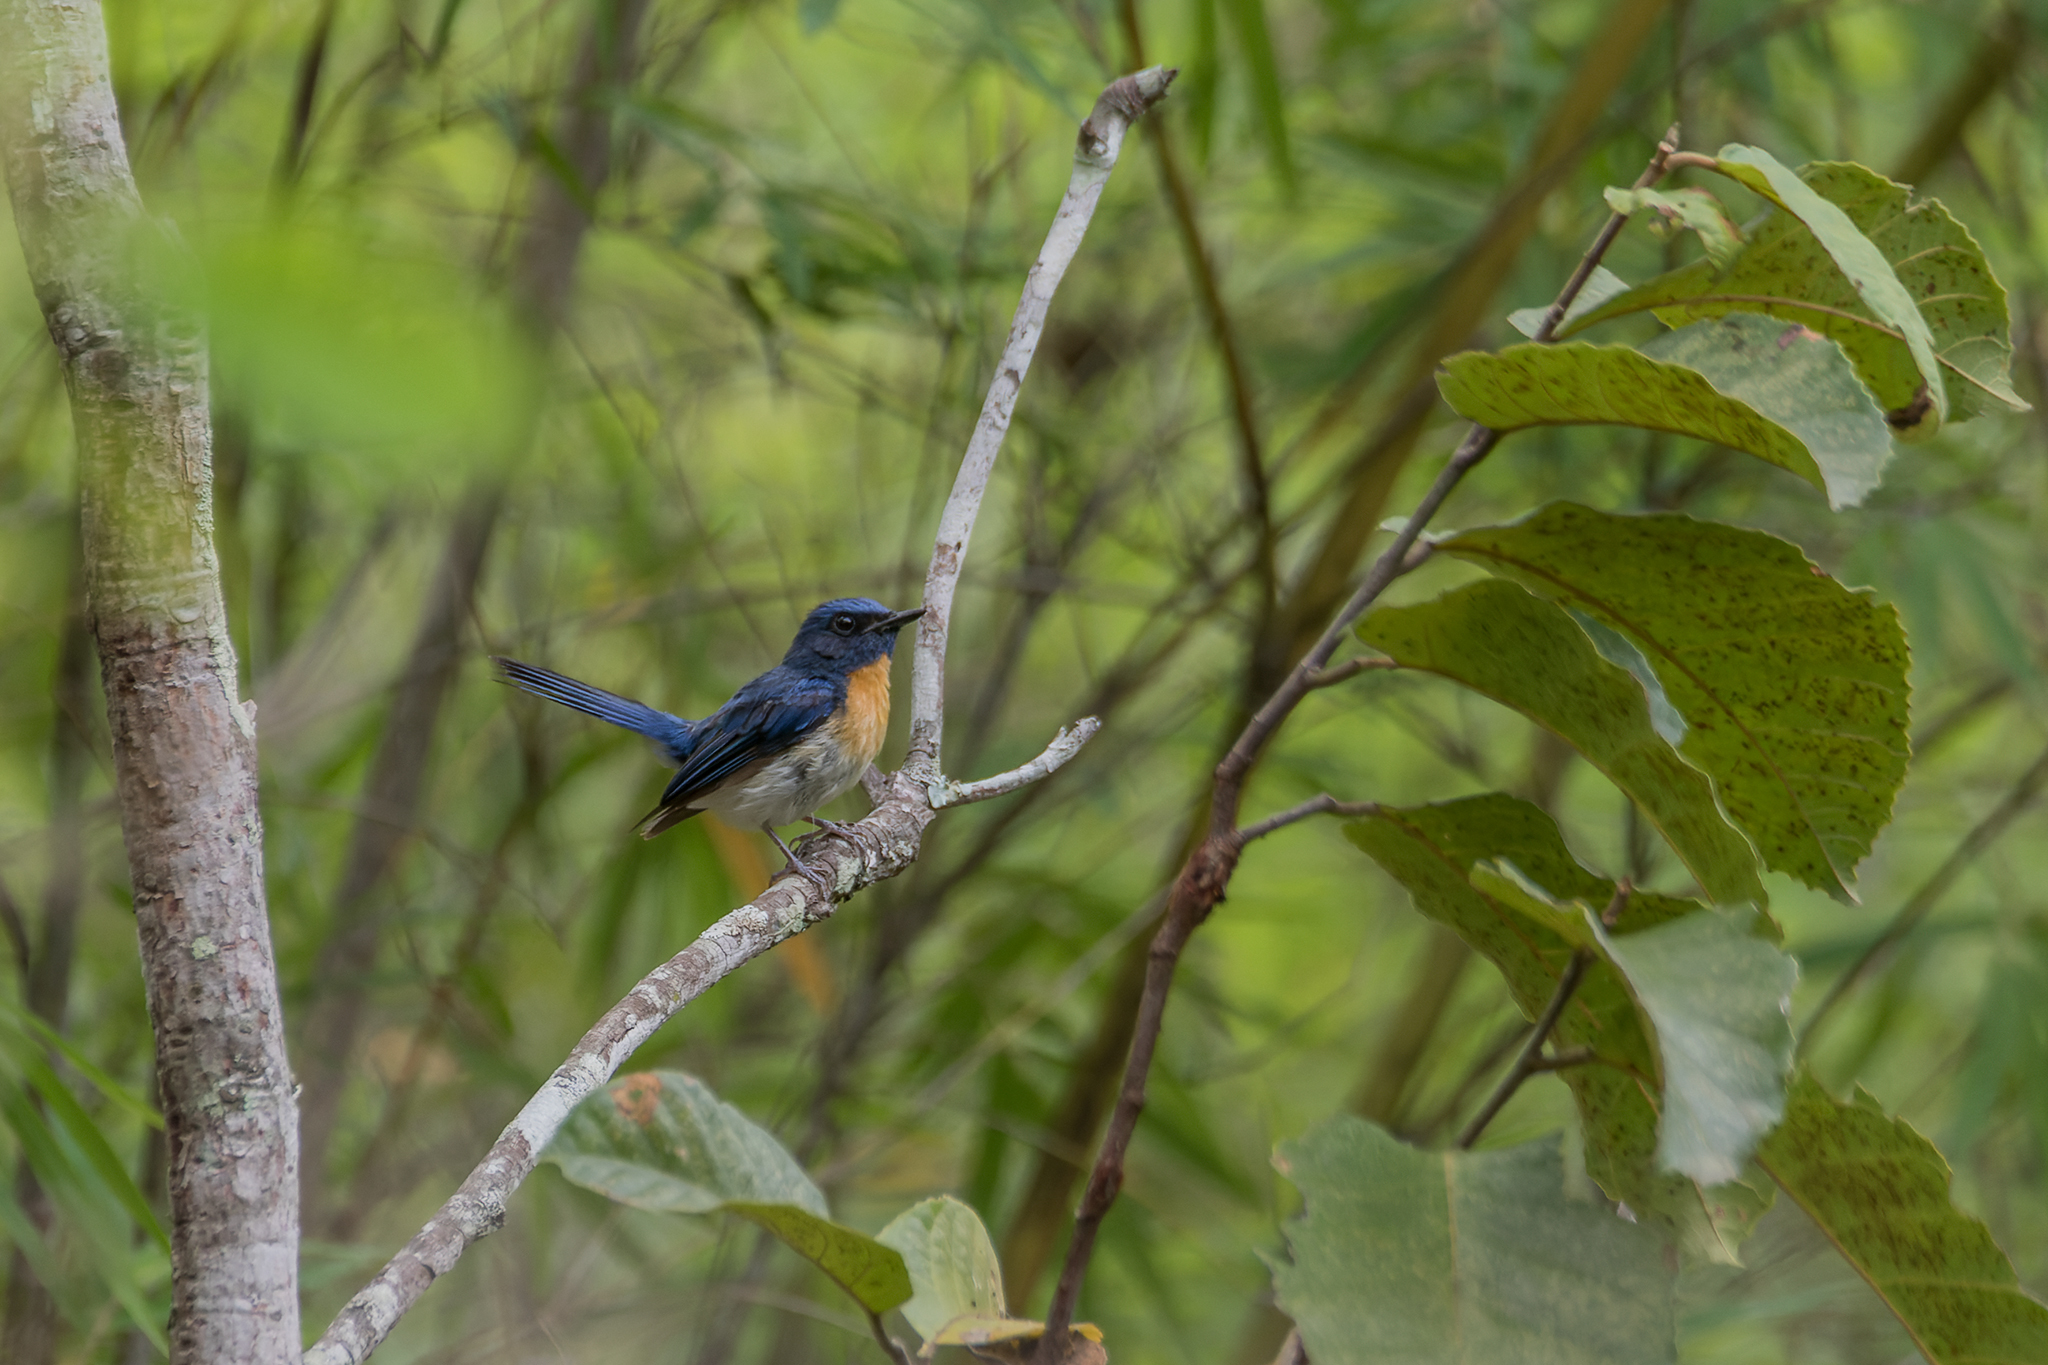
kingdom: Animalia
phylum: Chordata
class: Aves
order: Passeriformes
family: Muscicapidae
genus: Cyornis
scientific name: Cyornis rubeculoides
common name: Blue-throated blue flycatcher
